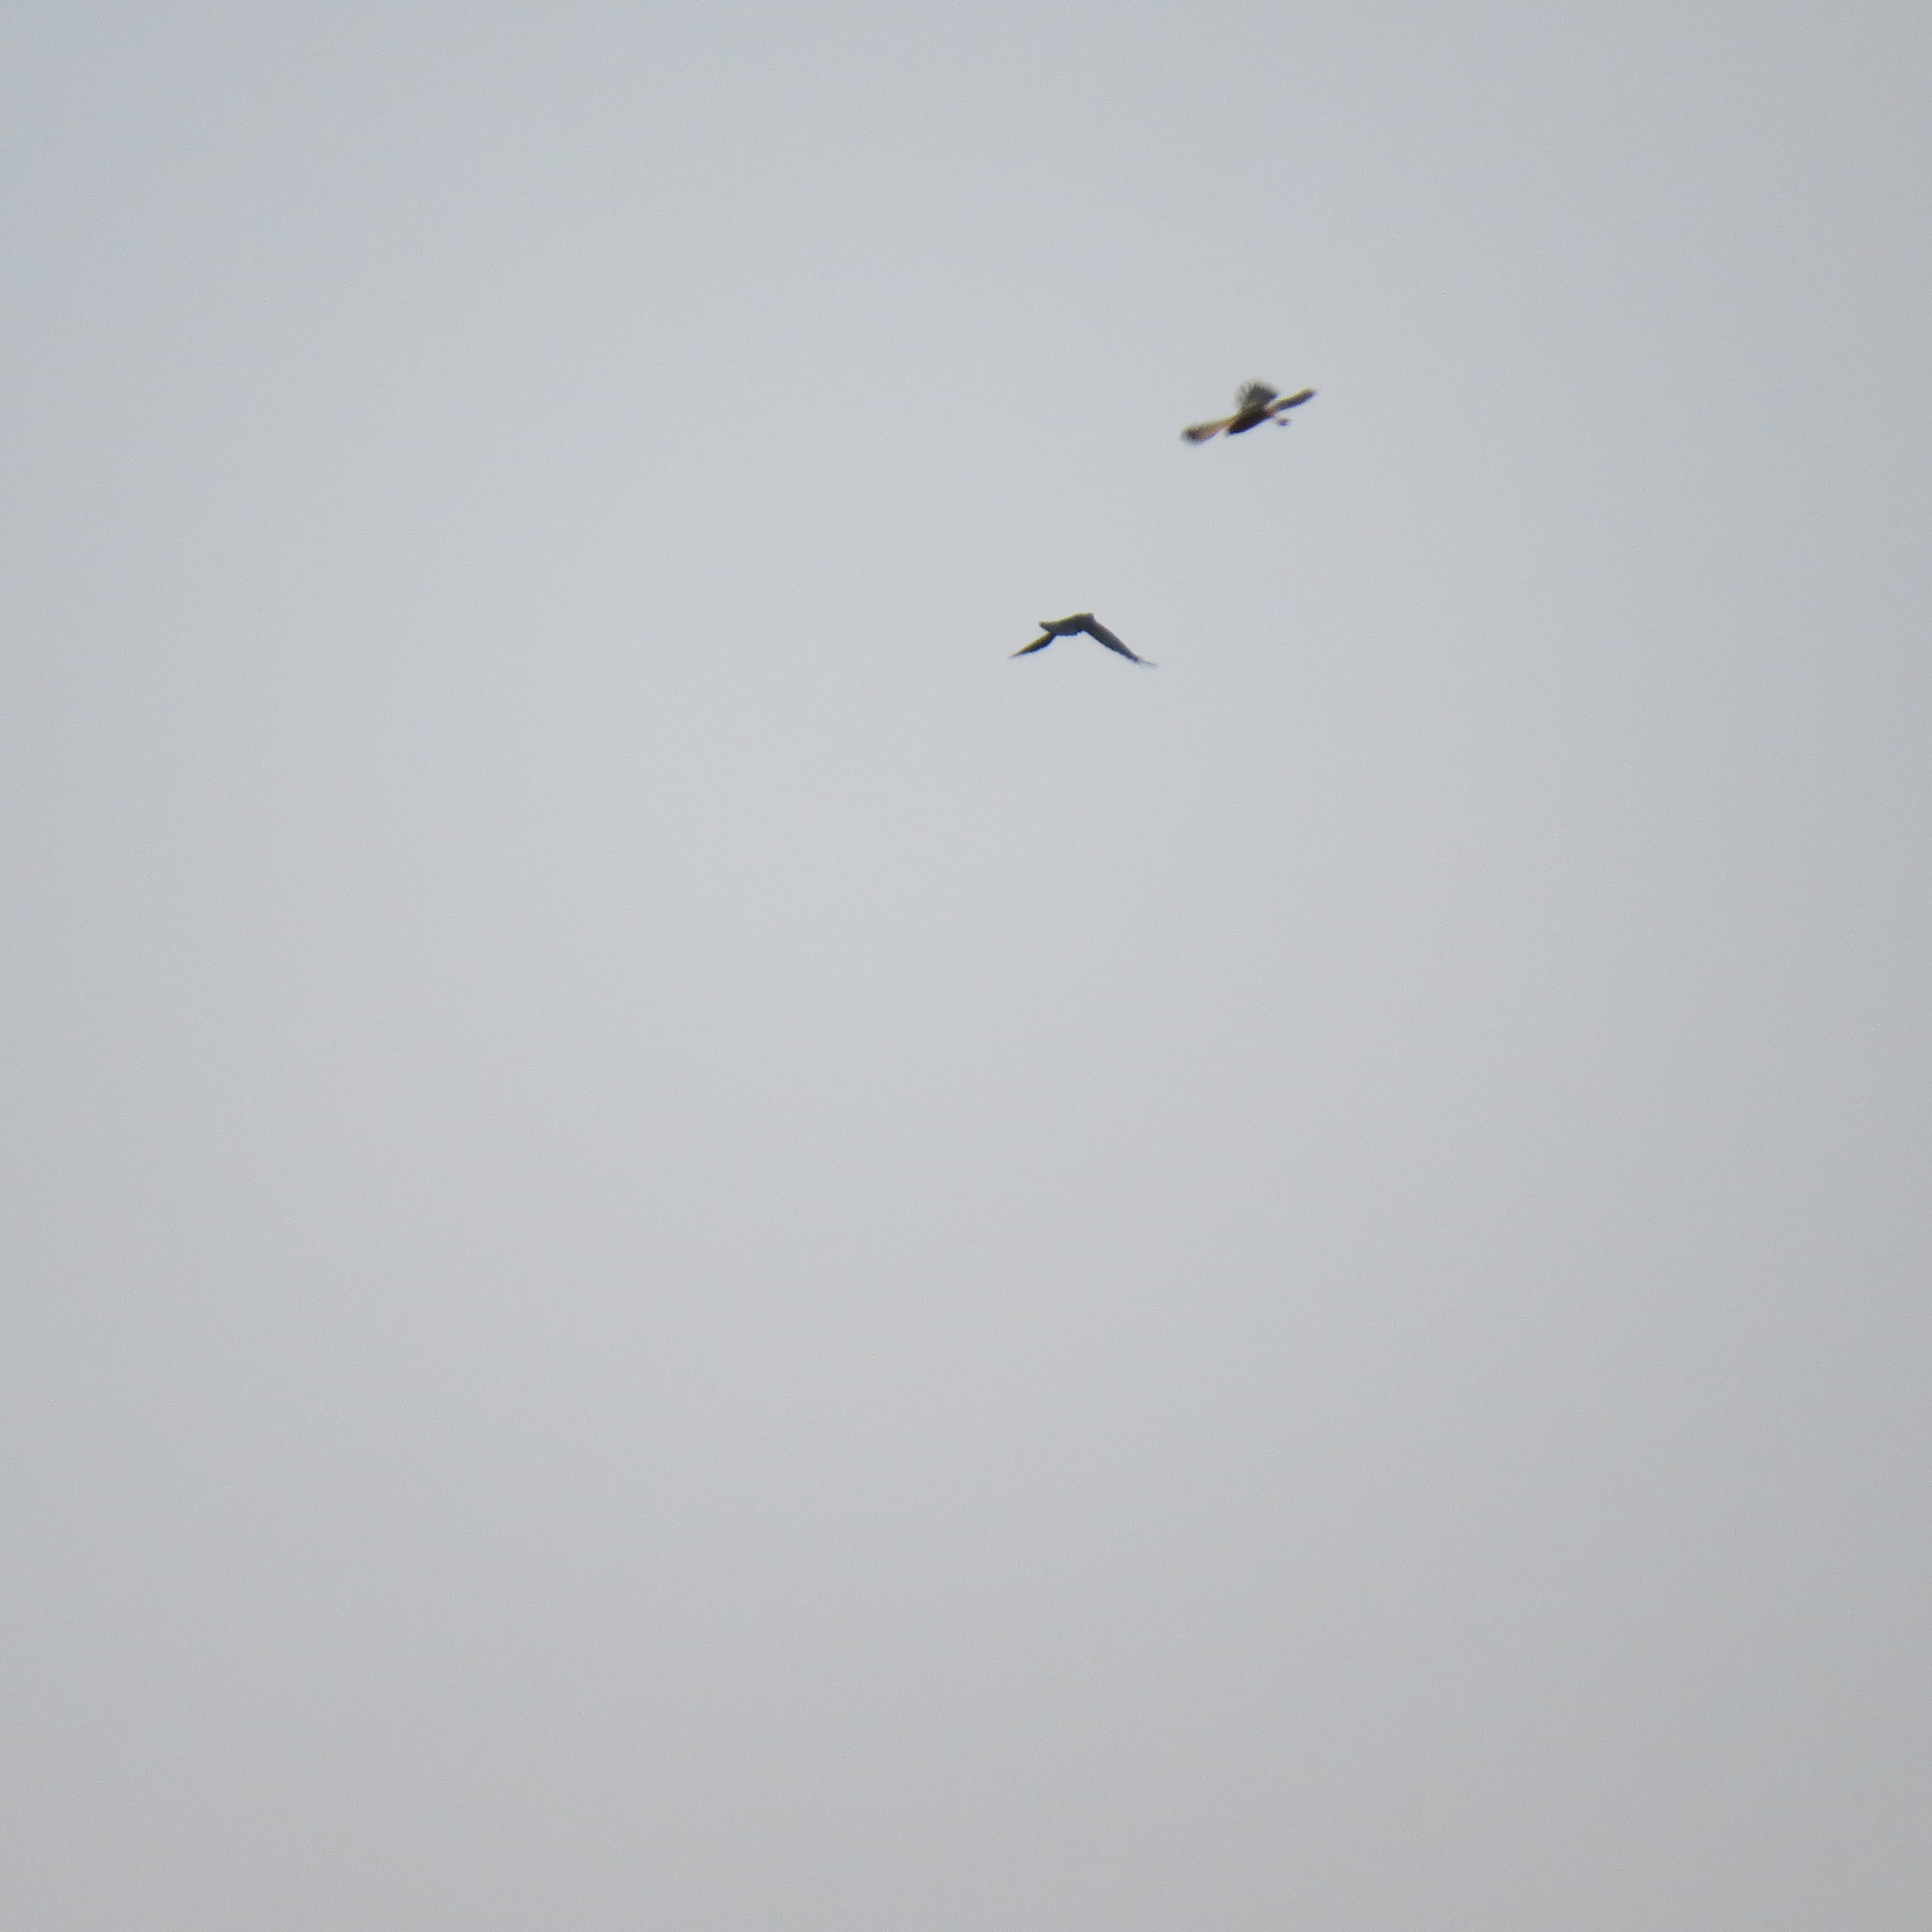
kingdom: Animalia
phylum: Chordata
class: Aves
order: Accipitriformes
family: Accipitridae
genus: Circus
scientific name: Circus macrourus
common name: Pallid harrier
